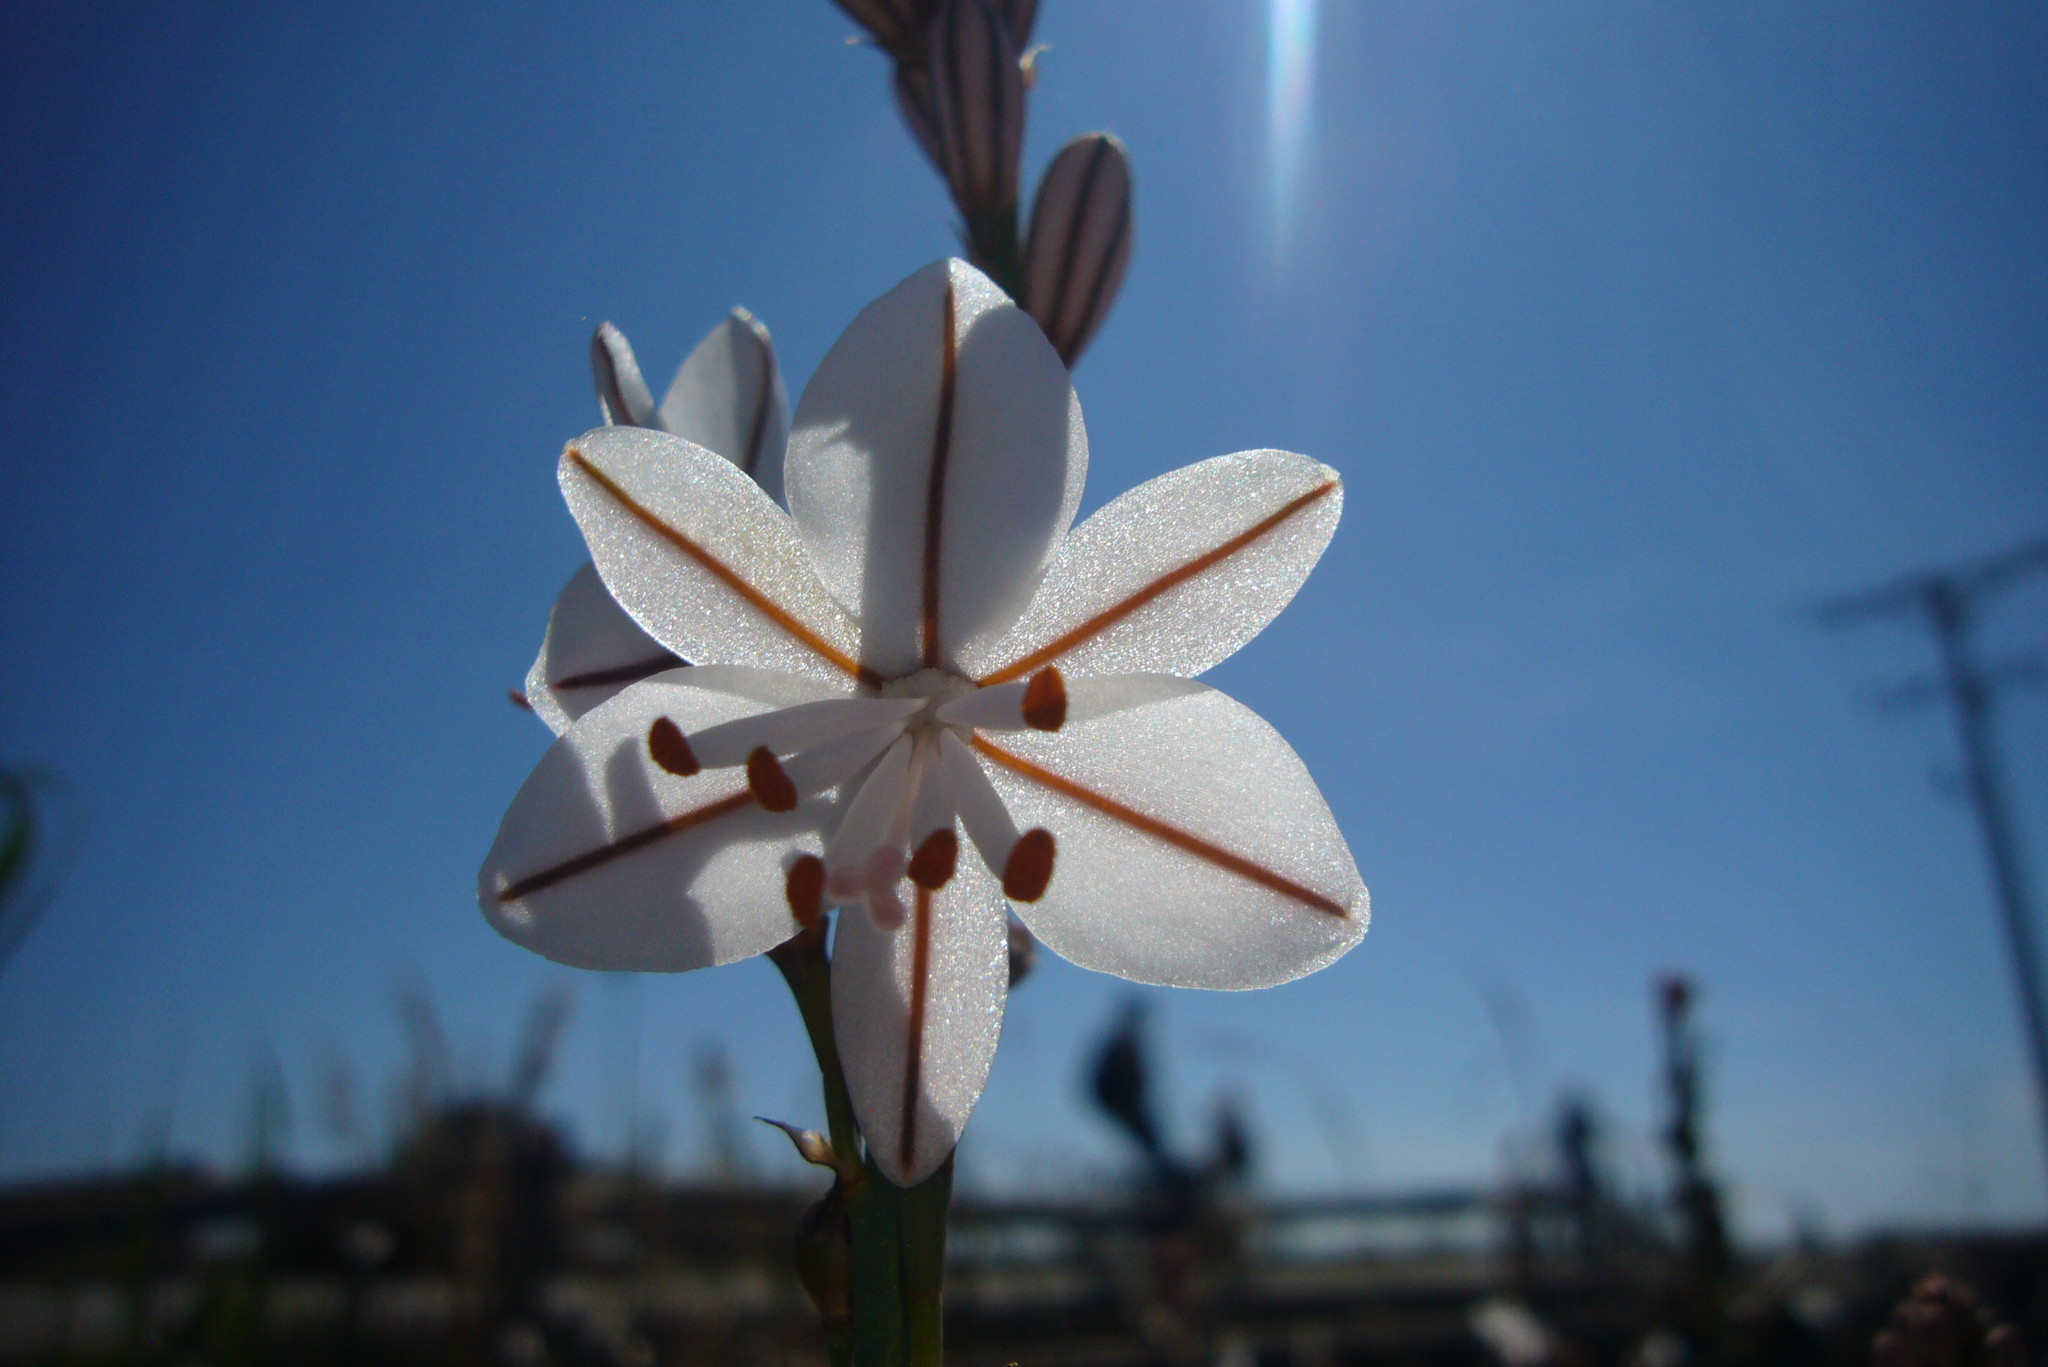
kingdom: Plantae
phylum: Tracheophyta
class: Liliopsida
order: Asparagales
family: Asphodelaceae
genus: Asphodelus
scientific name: Asphodelus fistulosus
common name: Onionweed
